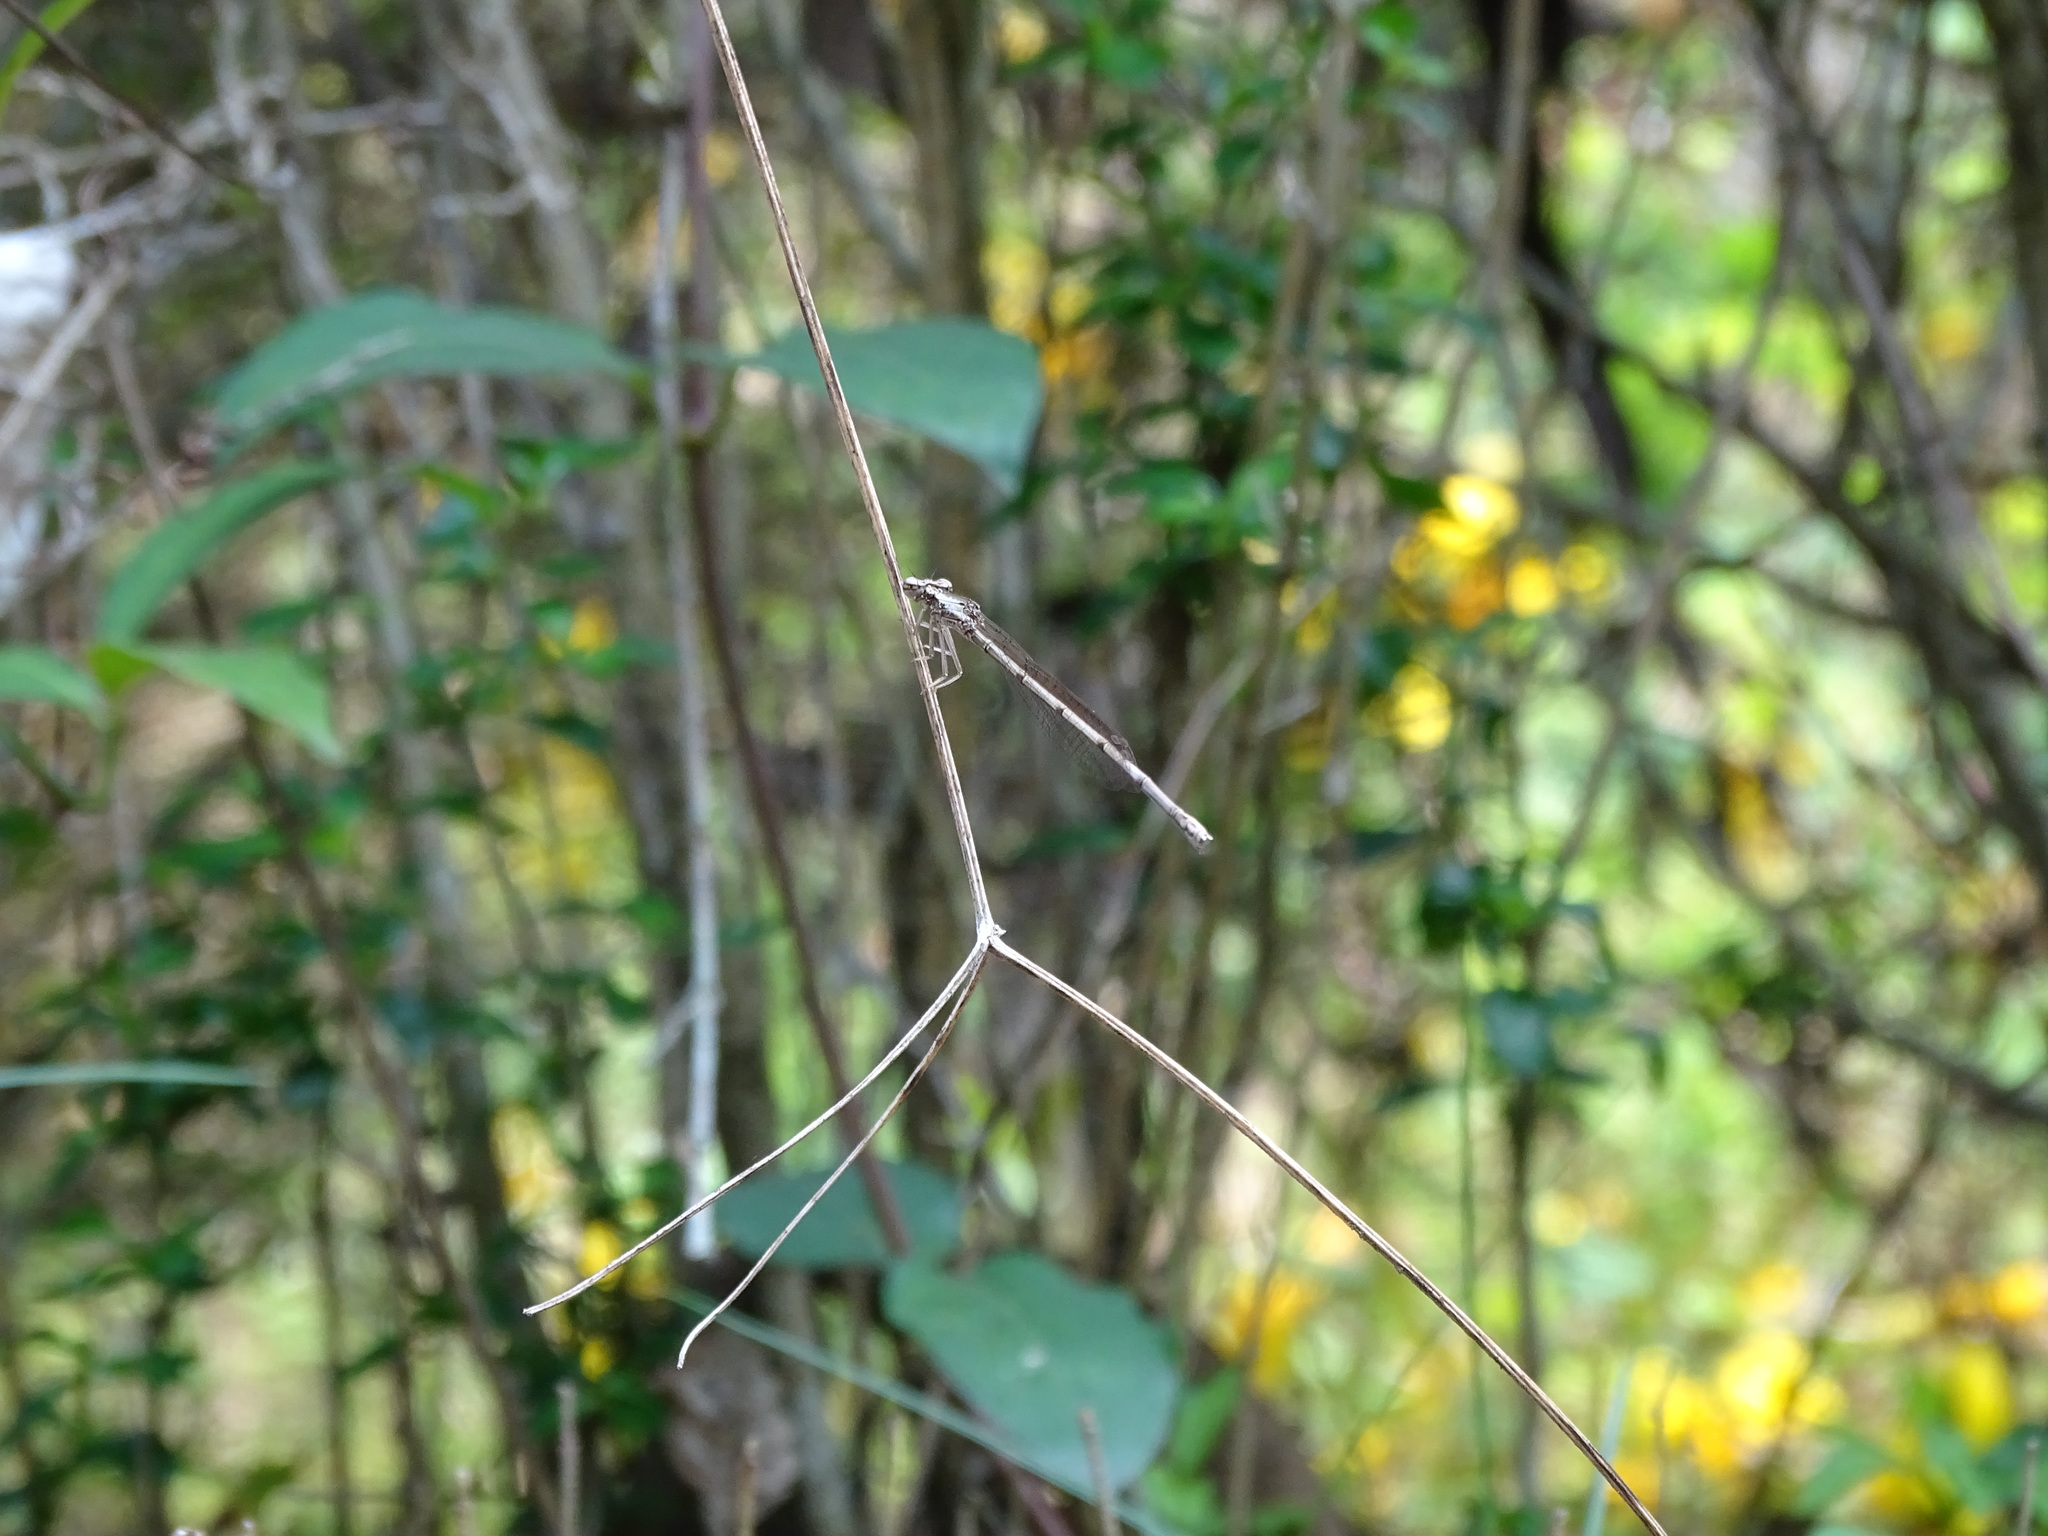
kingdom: Animalia
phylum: Arthropoda
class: Insecta
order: Odonata
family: Platycnemididae
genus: Copera
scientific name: Copera marginipes
